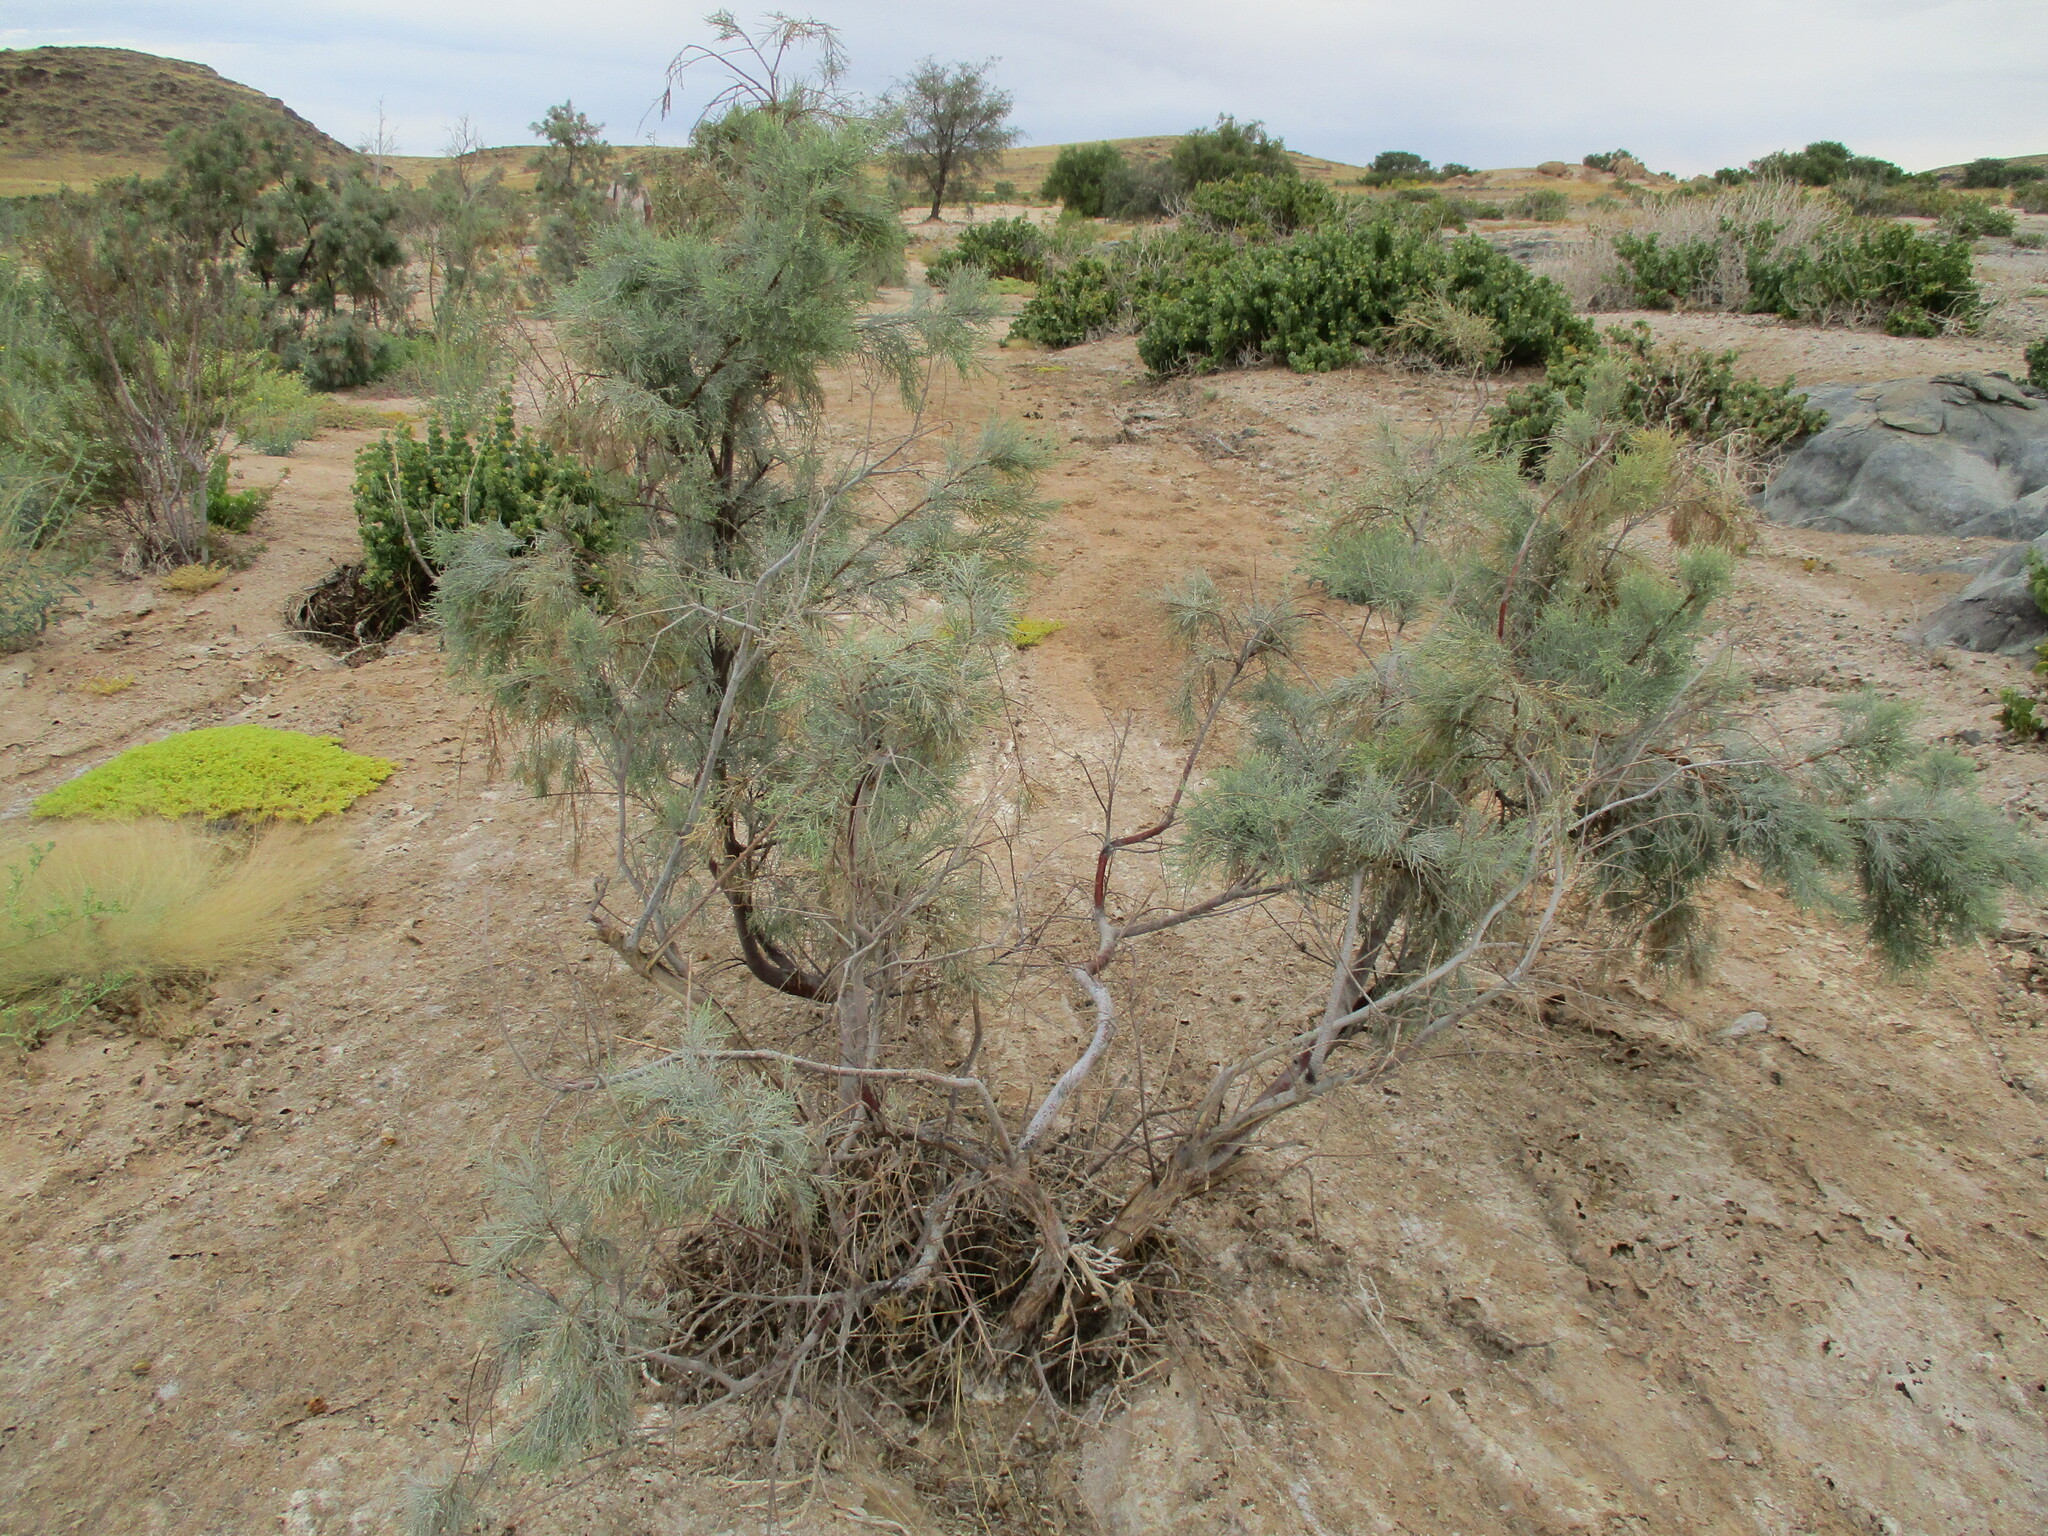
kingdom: Plantae
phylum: Tracheophyta
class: Magnoliopsida
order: Caryophyllales
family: Tamaricaceae
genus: Tamarix
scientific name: Tamarix usneoides
